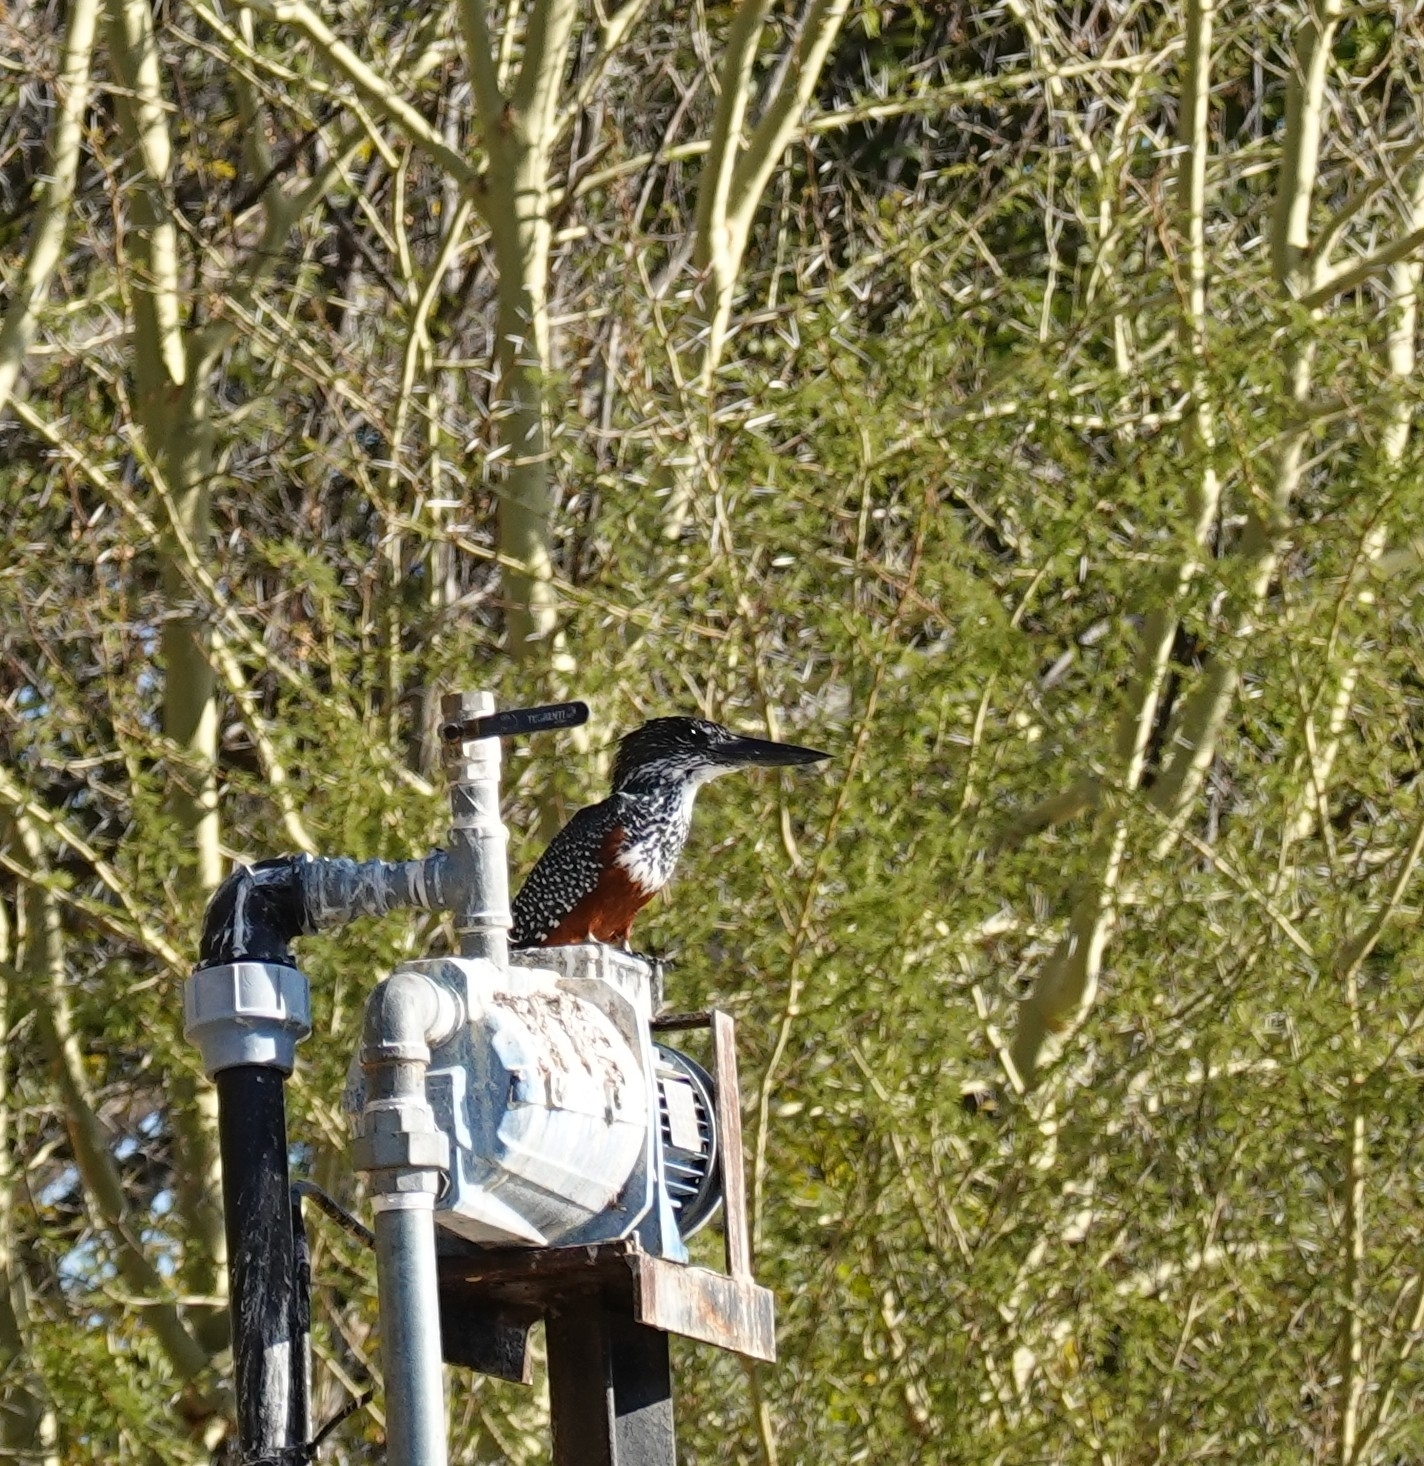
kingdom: Animalia
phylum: Chordata
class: Aves
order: Coraciiformes
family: Alcedinidae
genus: Megaceryle
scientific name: Megaceryle maxima
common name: Giant kingfisher
